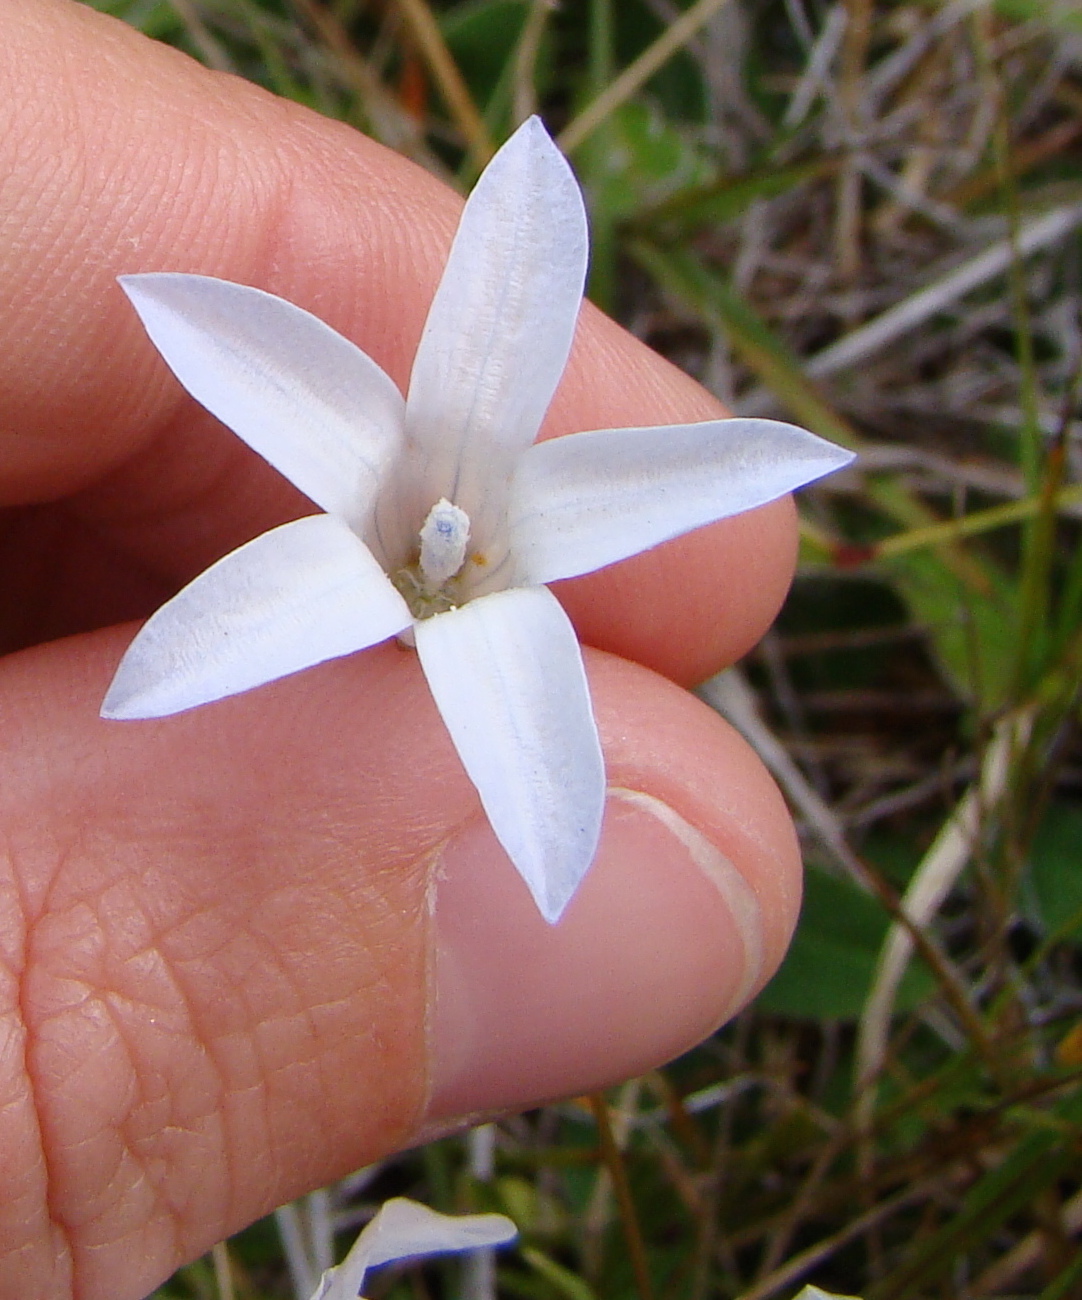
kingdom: Plantae
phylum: Tracheophyta
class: Magnoliopsida
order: Asterales
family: Campanulaceae
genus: Wahlenbergia
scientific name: Wahlenbergia albomarginata
